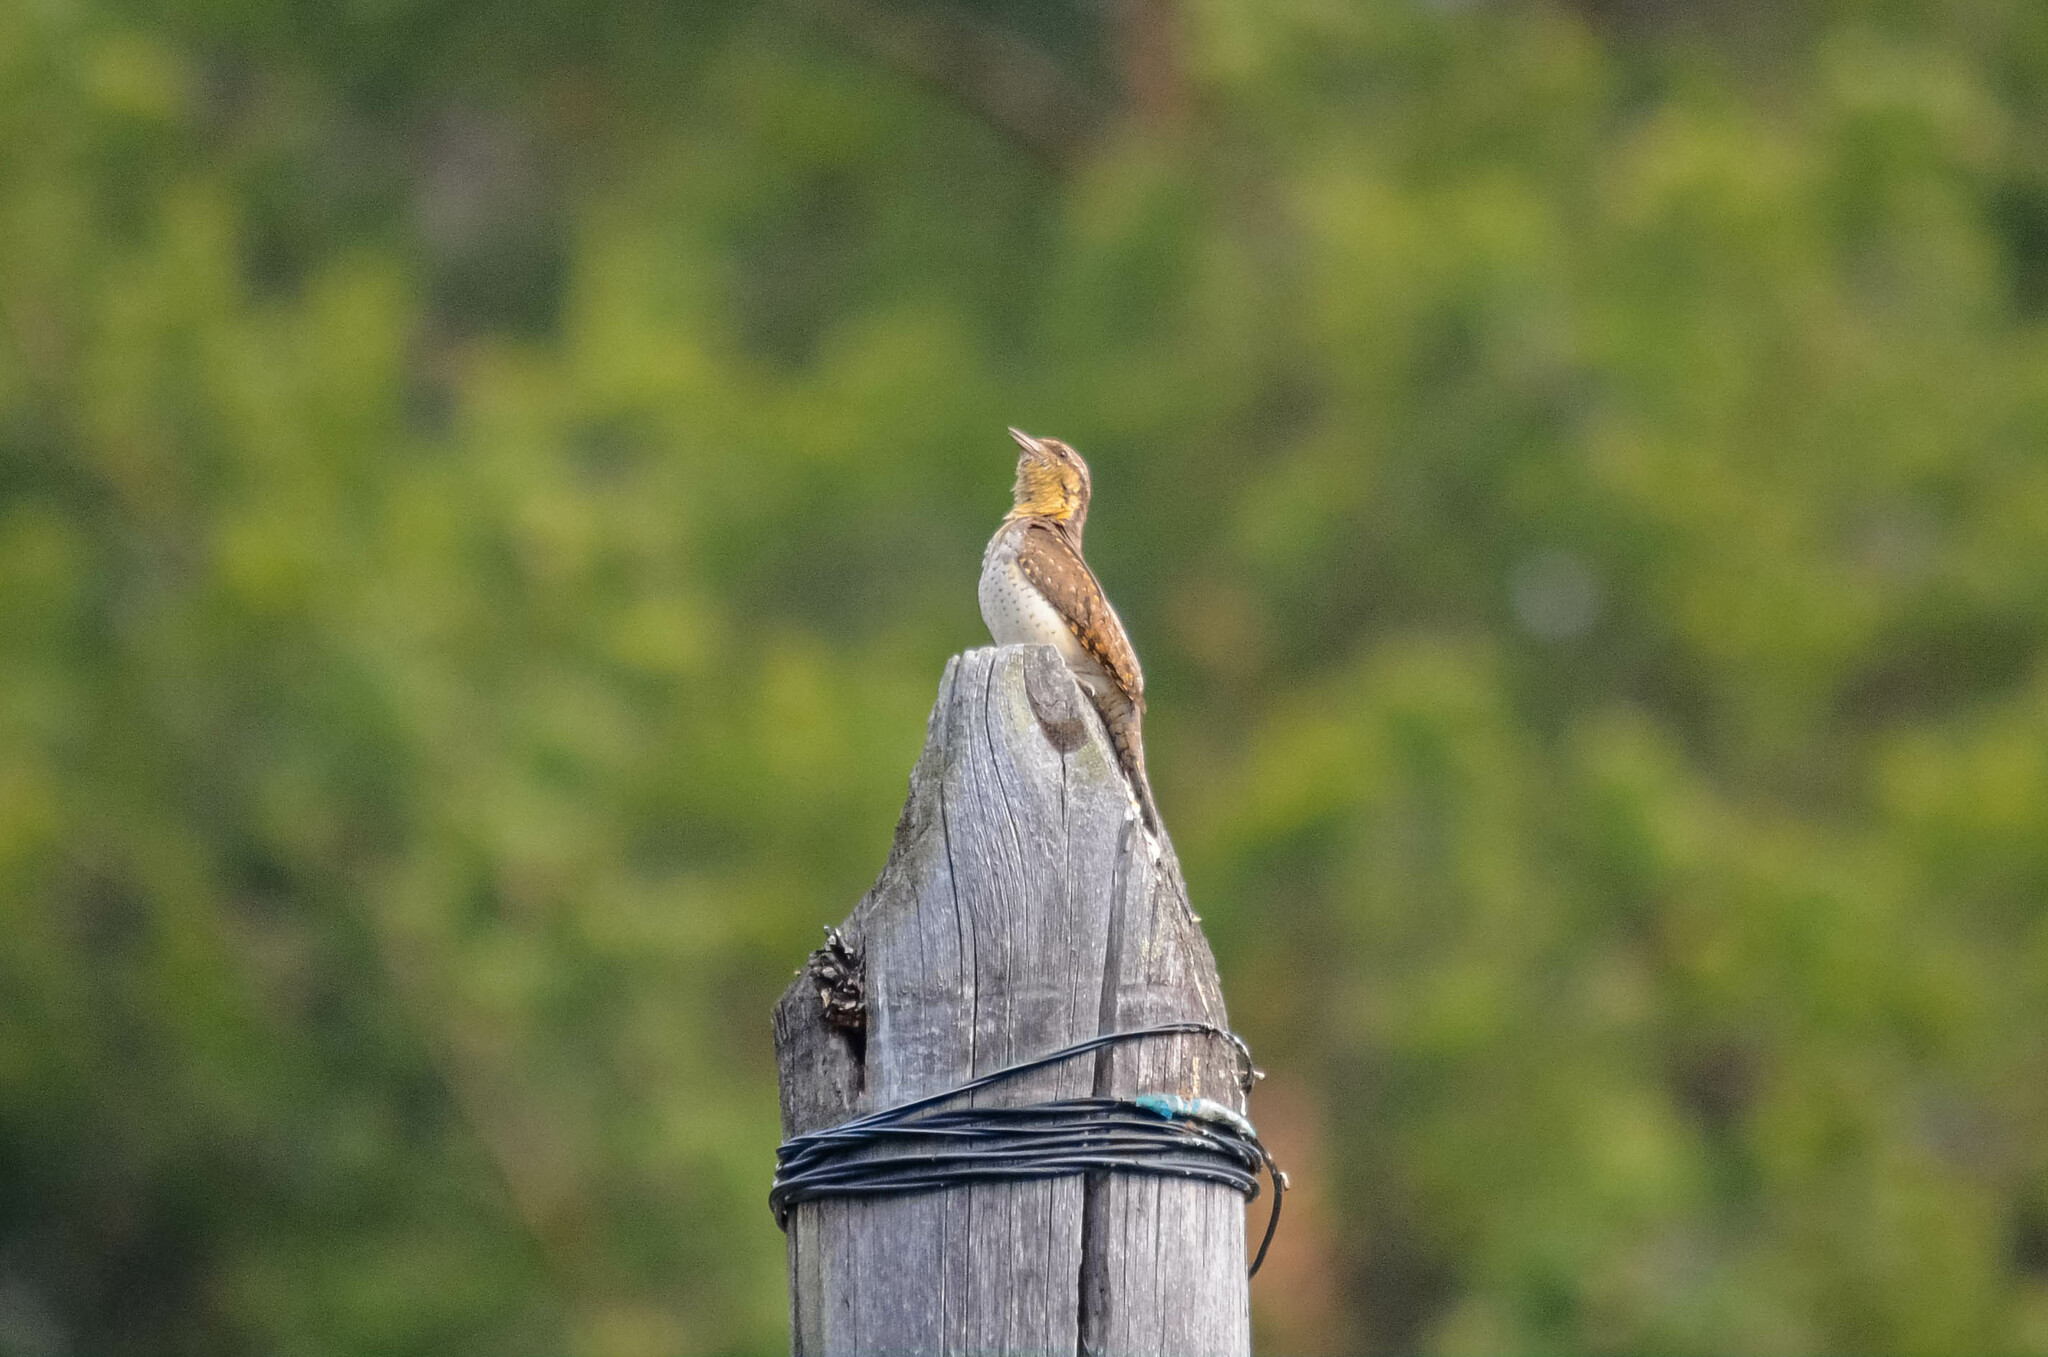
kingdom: Animalia
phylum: Chordata
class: Aves
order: Piciformes
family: Picidae
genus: Jynx
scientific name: Jynx torquilla
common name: Eurasian wryneck
